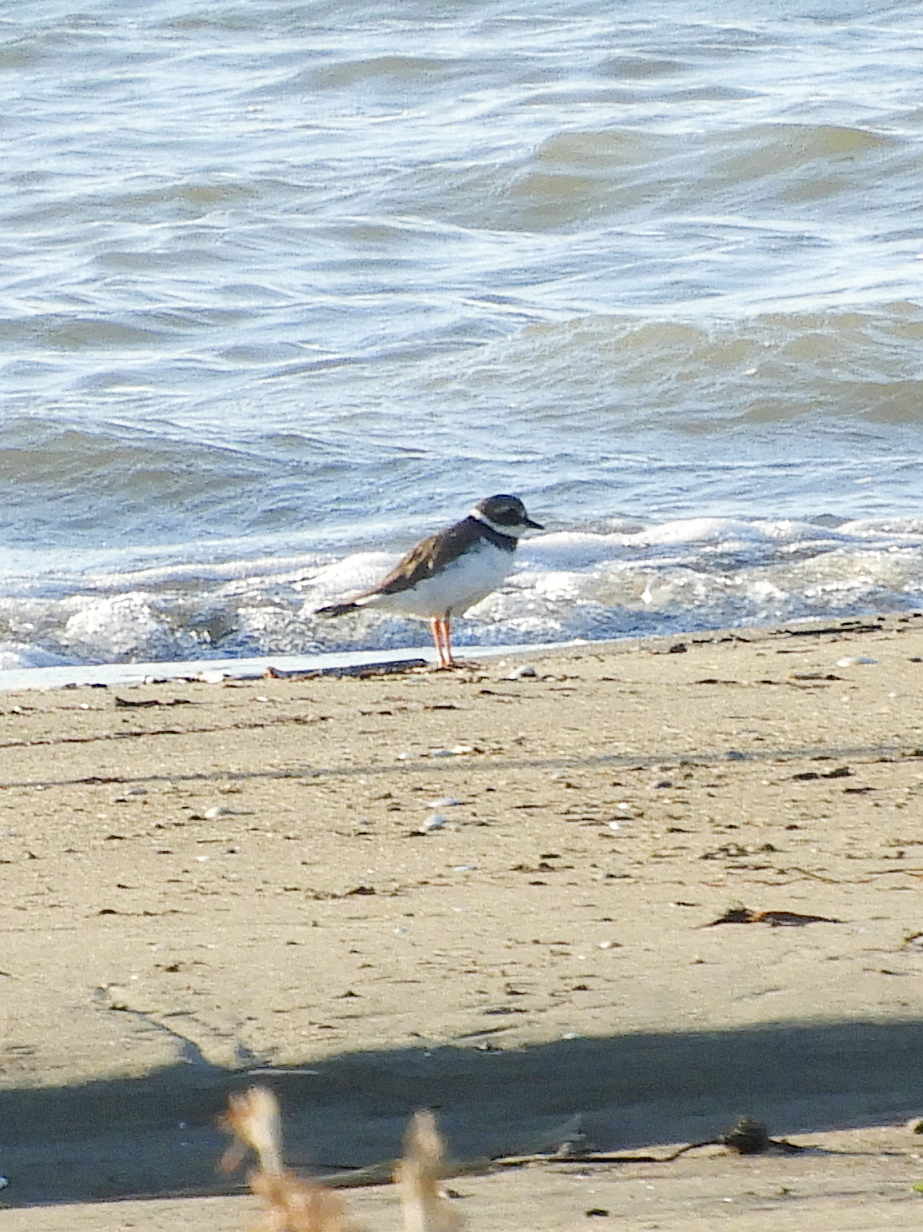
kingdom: Animalia
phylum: Chordata
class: Aves
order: Charadriiformes
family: Charadriidae
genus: Charadrius
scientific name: Charadrius hiaticula
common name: Common ringed plover
